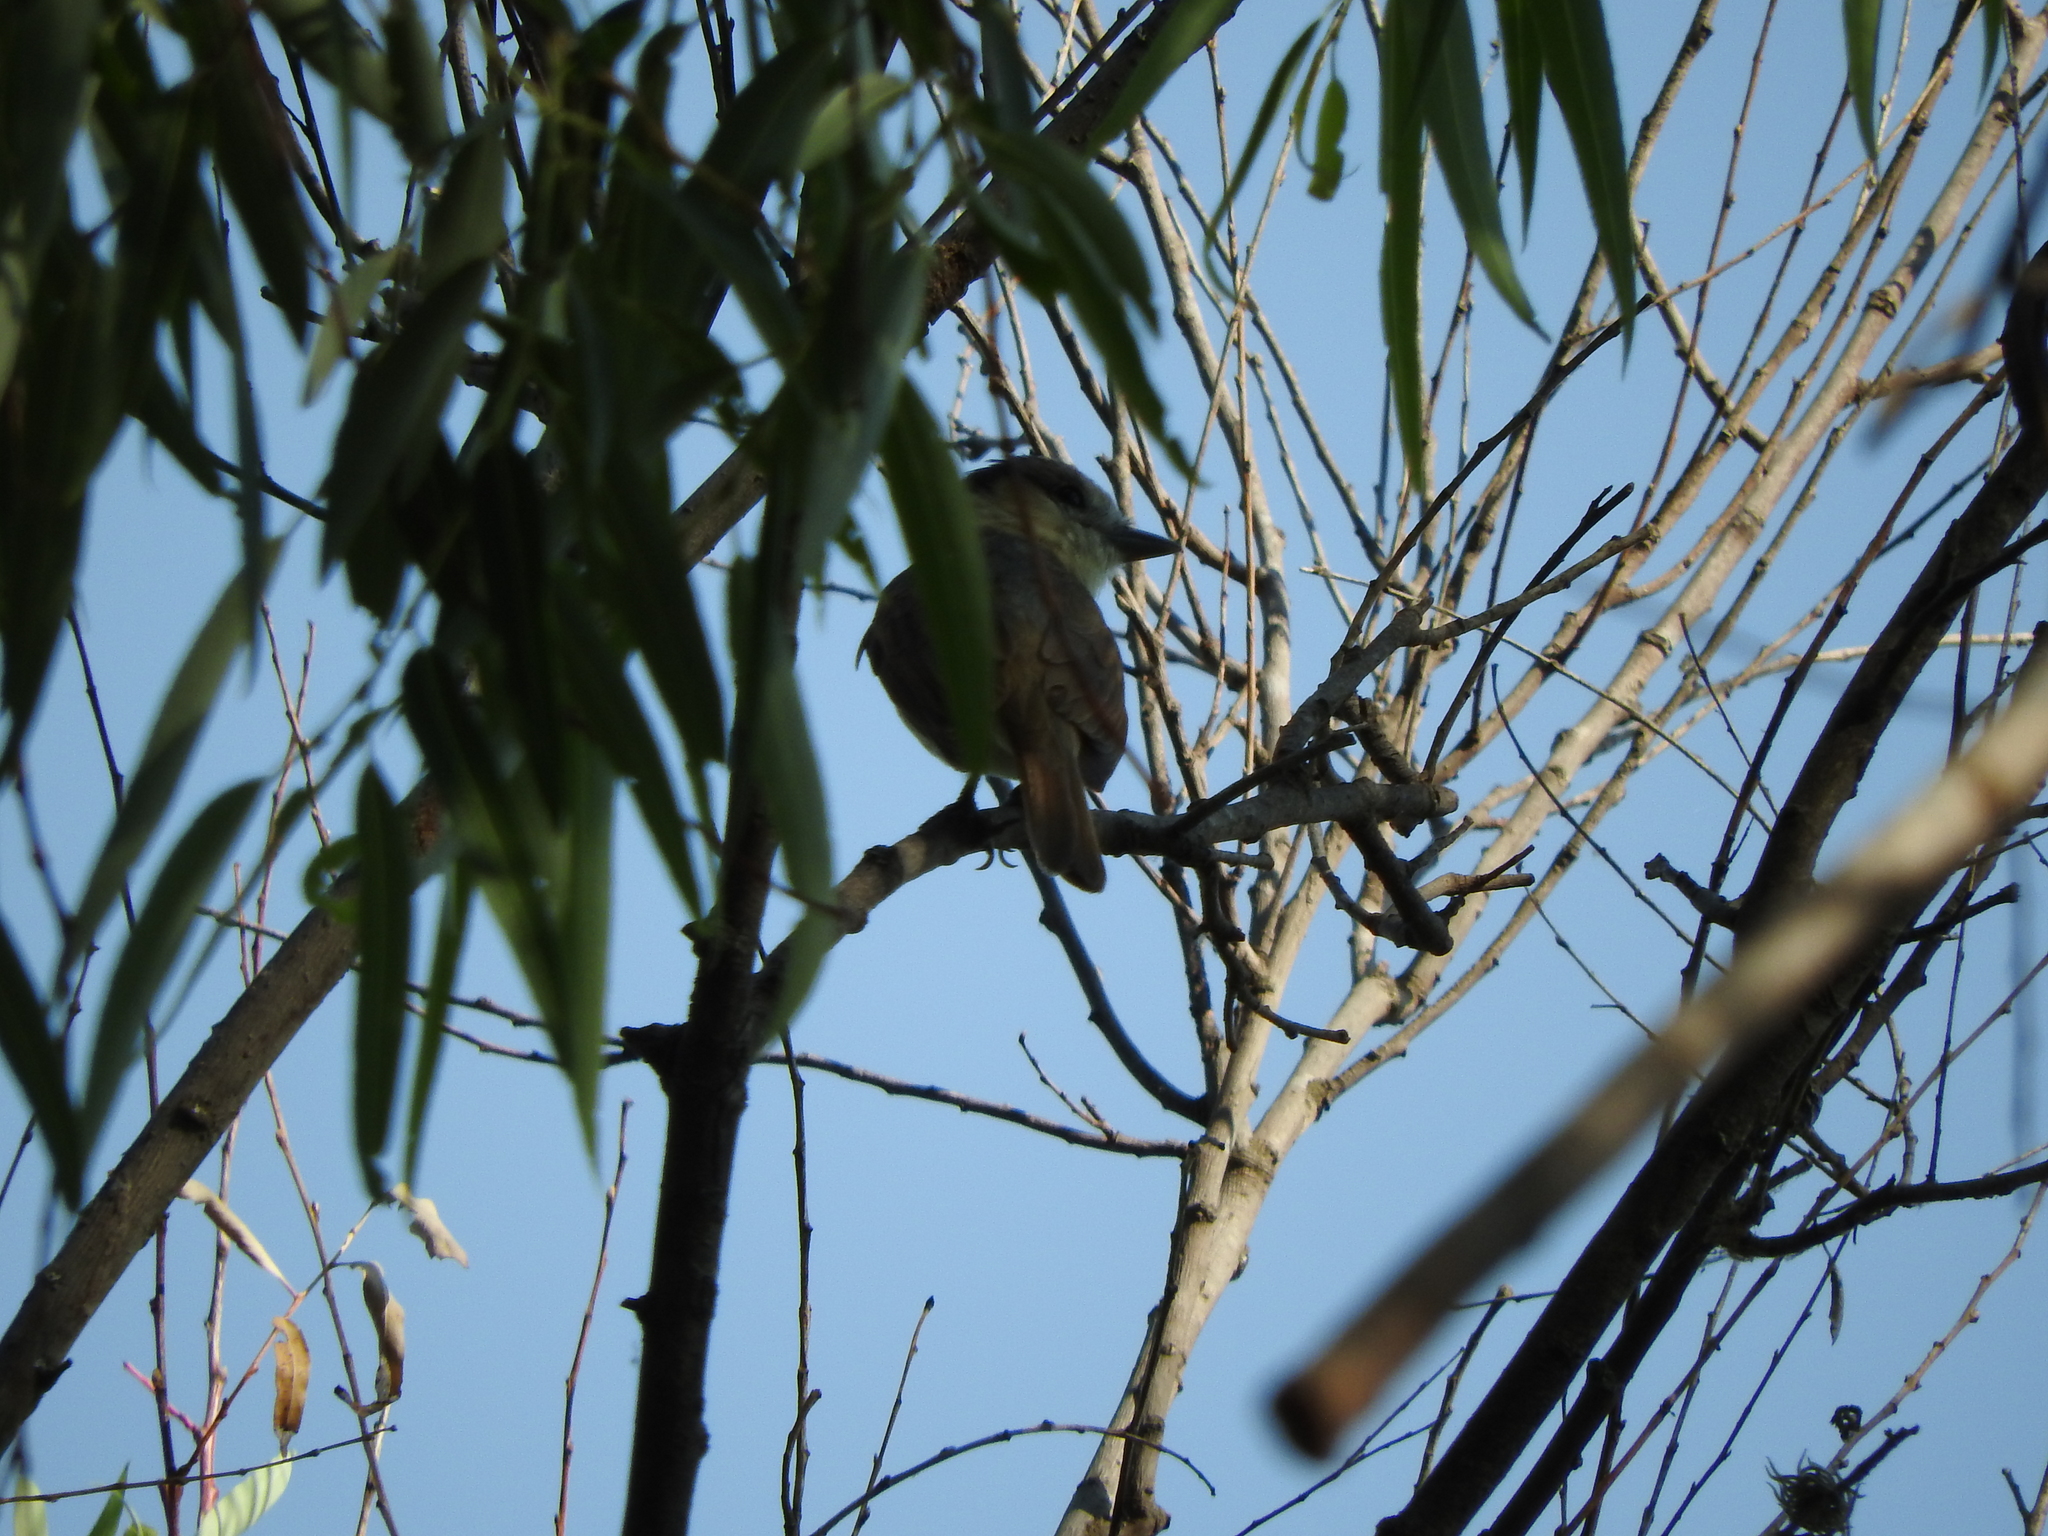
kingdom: Animalia
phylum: Chordata
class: Aves
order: Passeriformes
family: Cotingidae
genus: Pachyramphus
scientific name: Pachyramphus aglaiae
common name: Rose-throated becard
